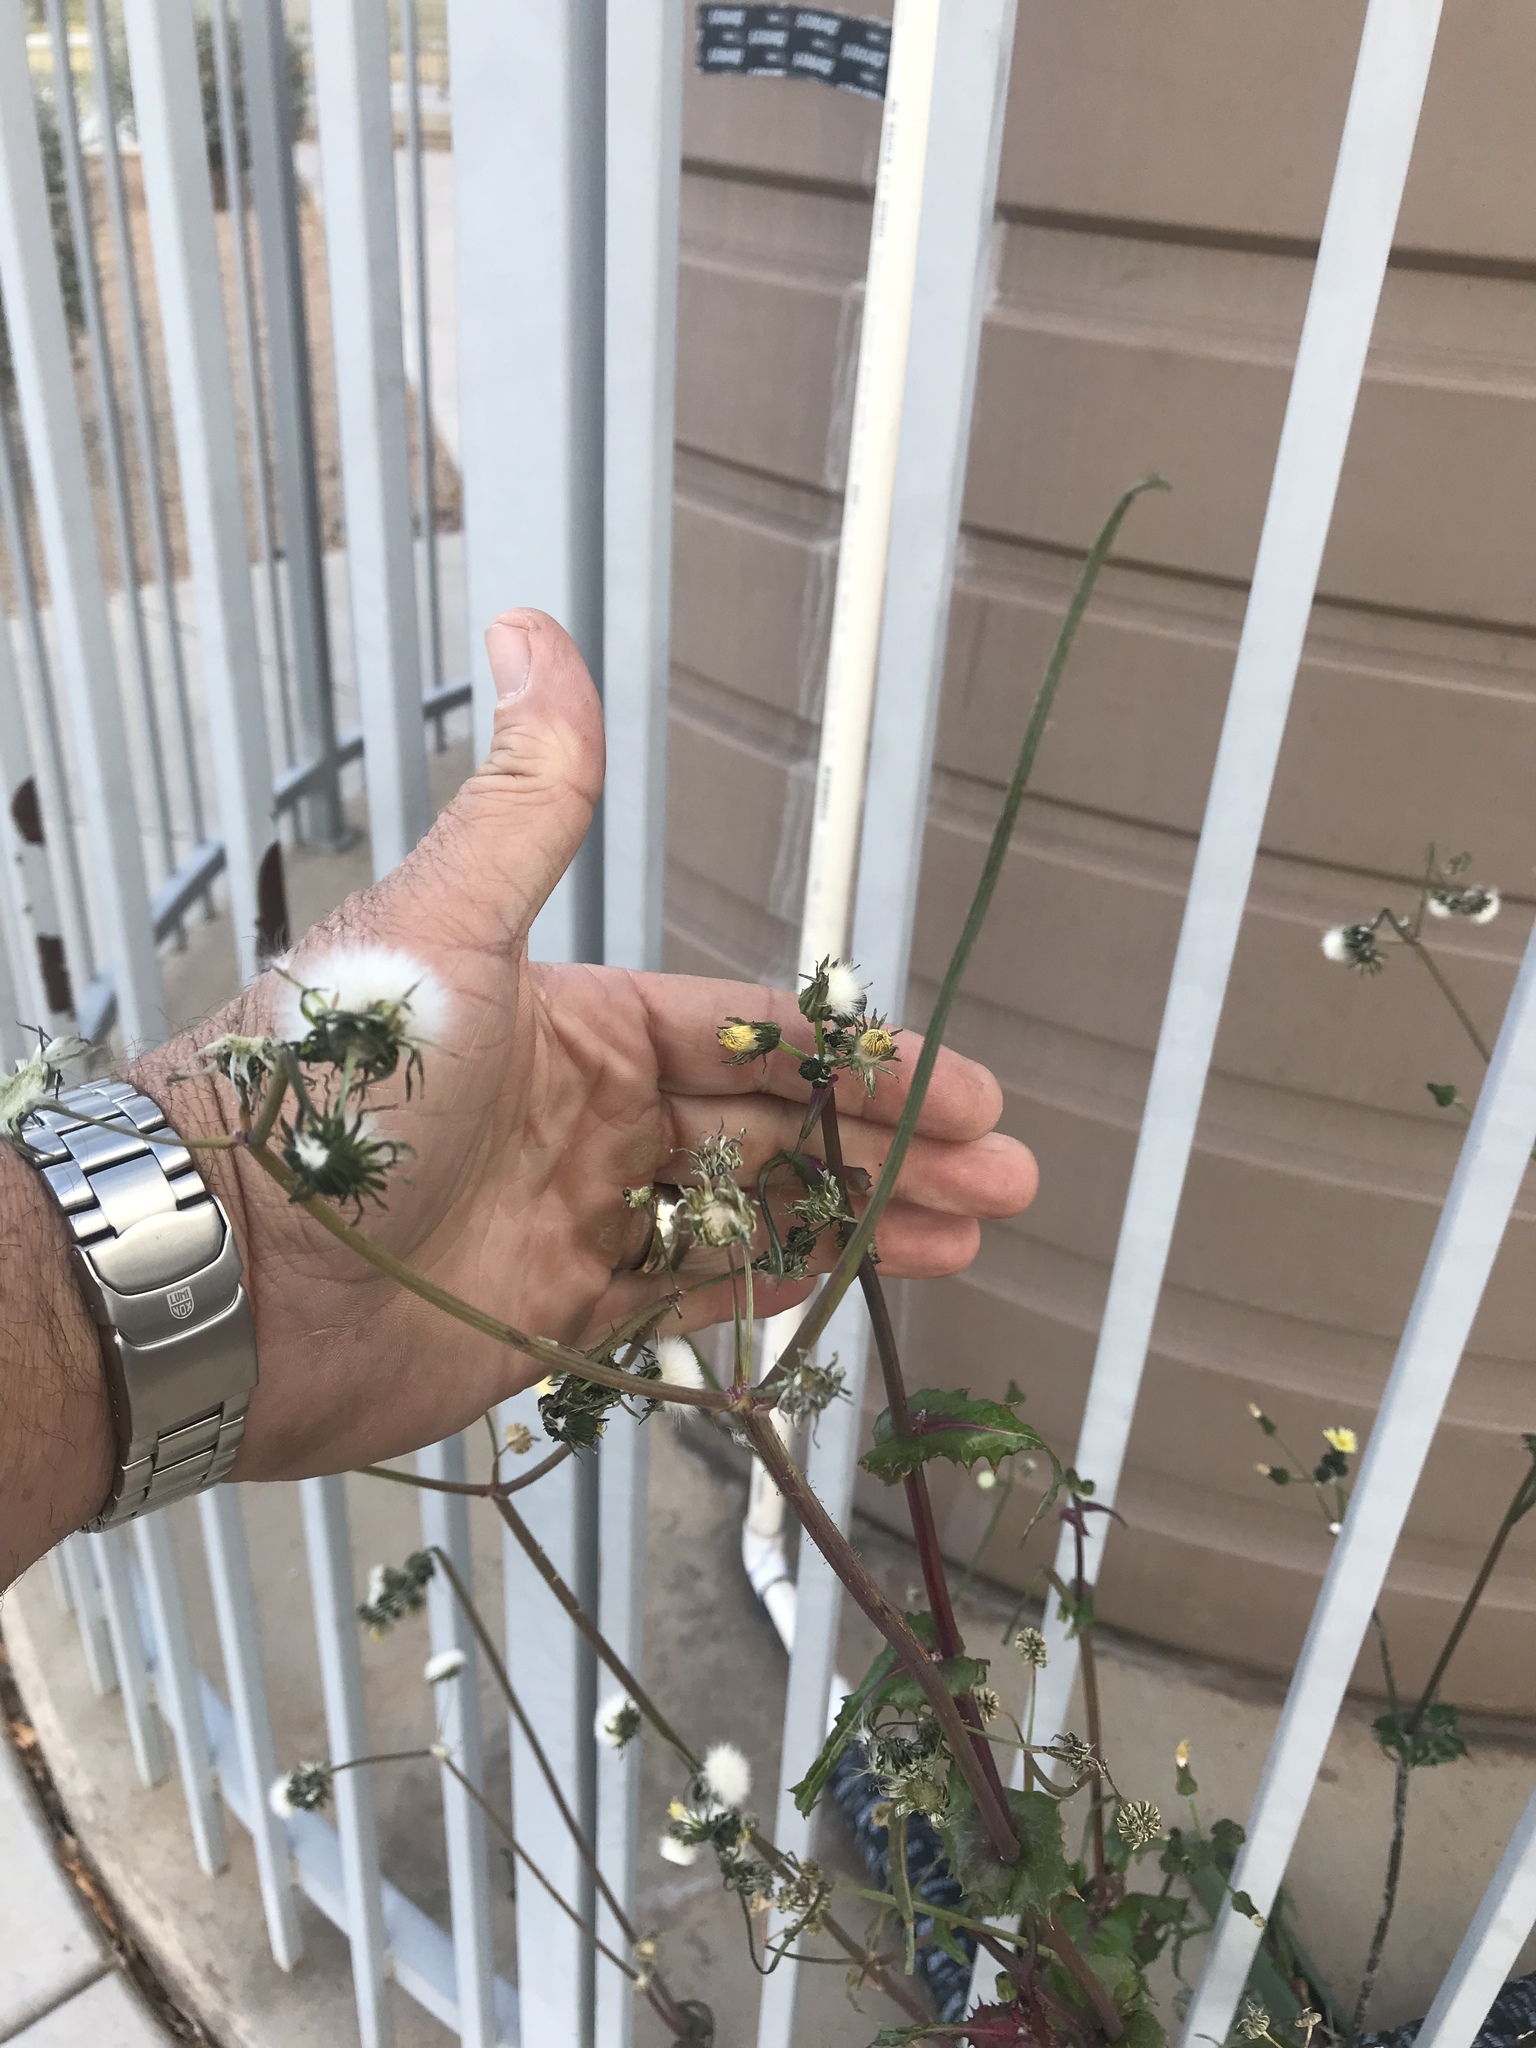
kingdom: Plantae
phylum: Tracheophyta
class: Magnoliopsida
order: Asterales
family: Asteraceae
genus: Sonchus
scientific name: Sonchus asper
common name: Prickly sow-thistle
